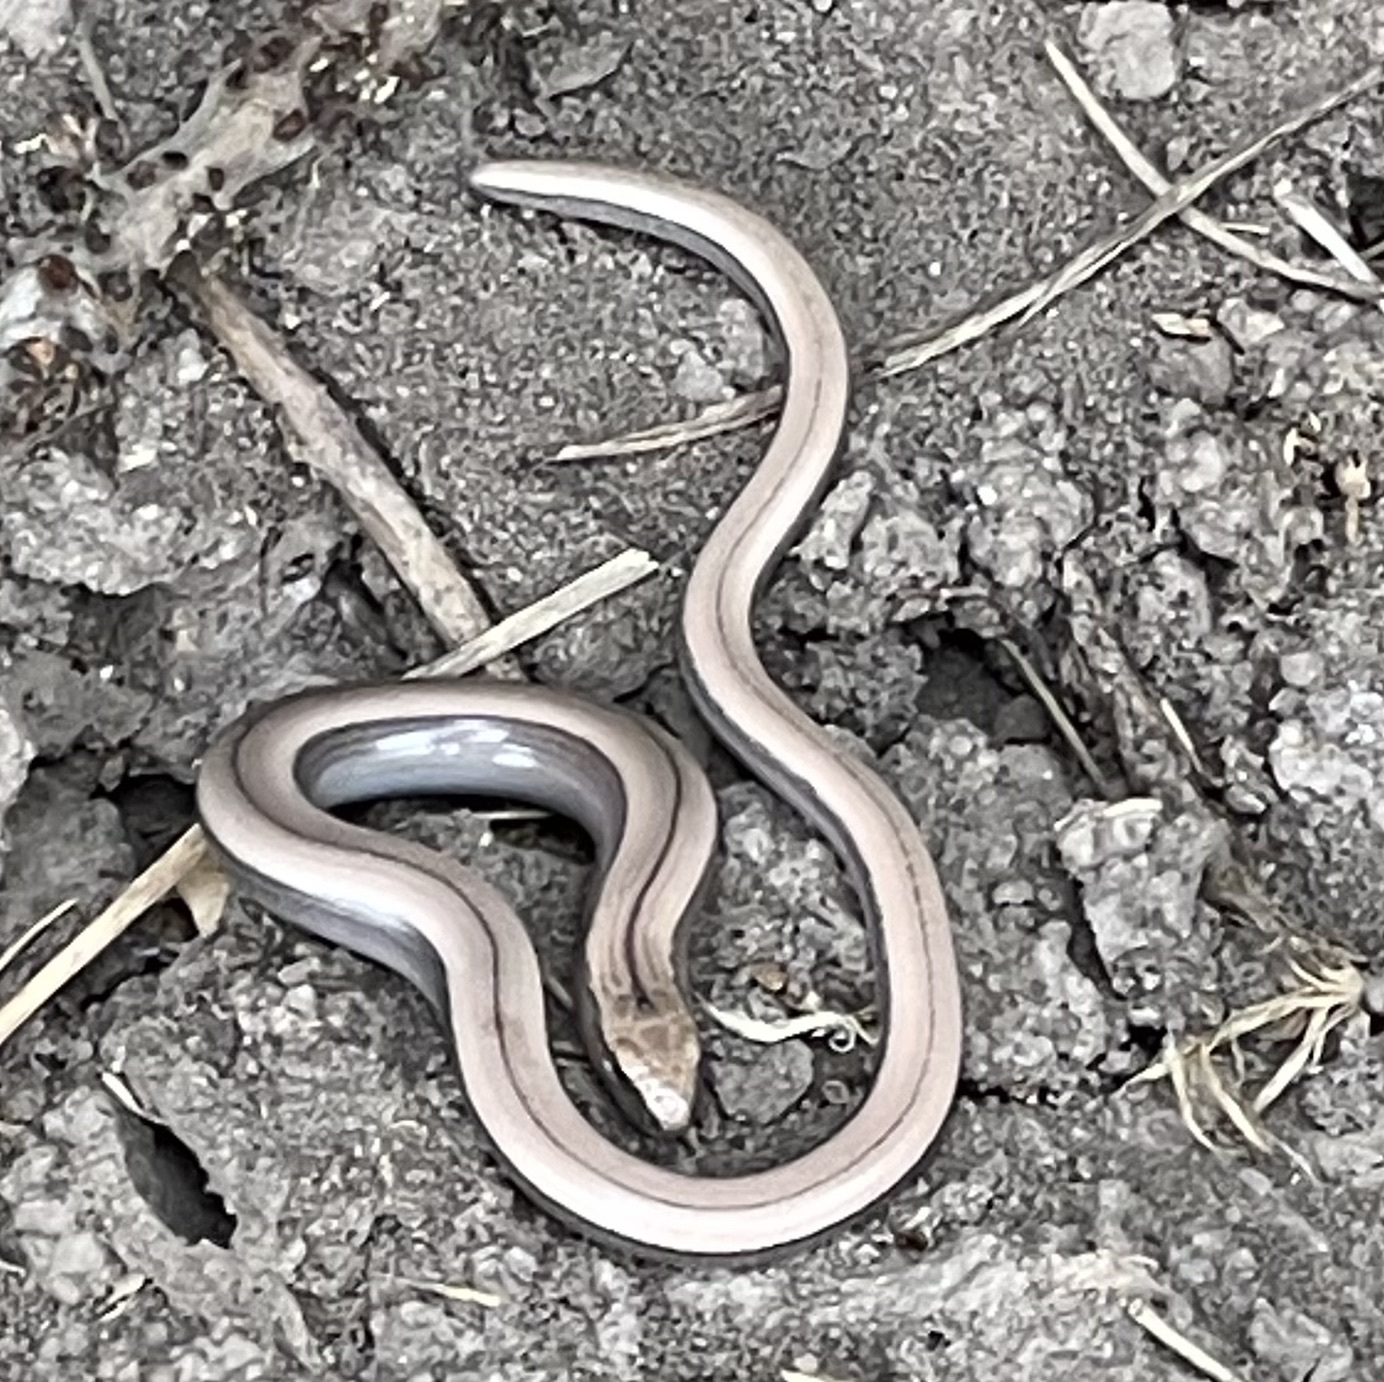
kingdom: Animalia
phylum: Chordata
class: Squamata
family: Anguidae
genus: Anguis
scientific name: Anguis fragilis
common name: Slow worm
